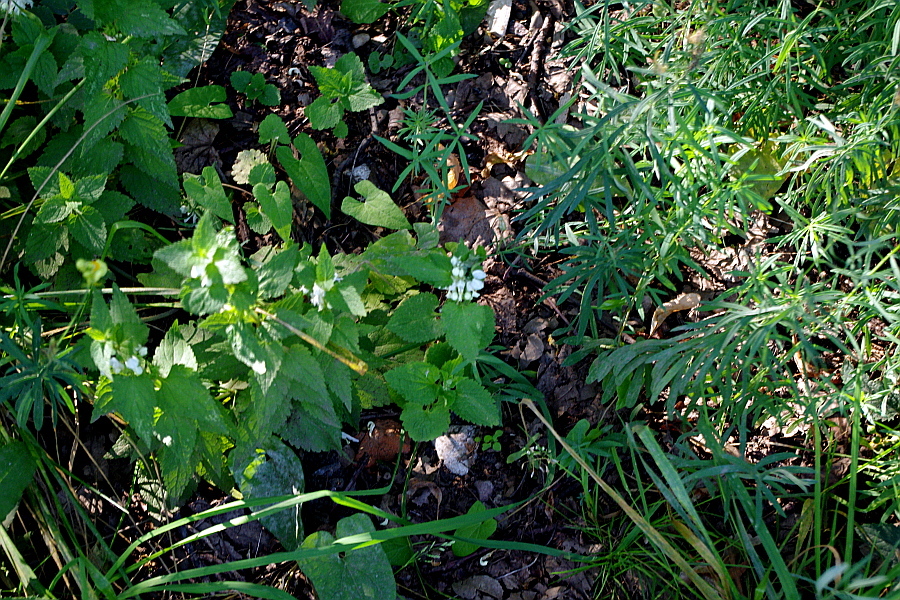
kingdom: Plantae
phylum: Tracheophyta
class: Magnoliopsida
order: Lamiales
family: Lamiaceae
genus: Lamium
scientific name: Lamium album
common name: White dead-nettle
